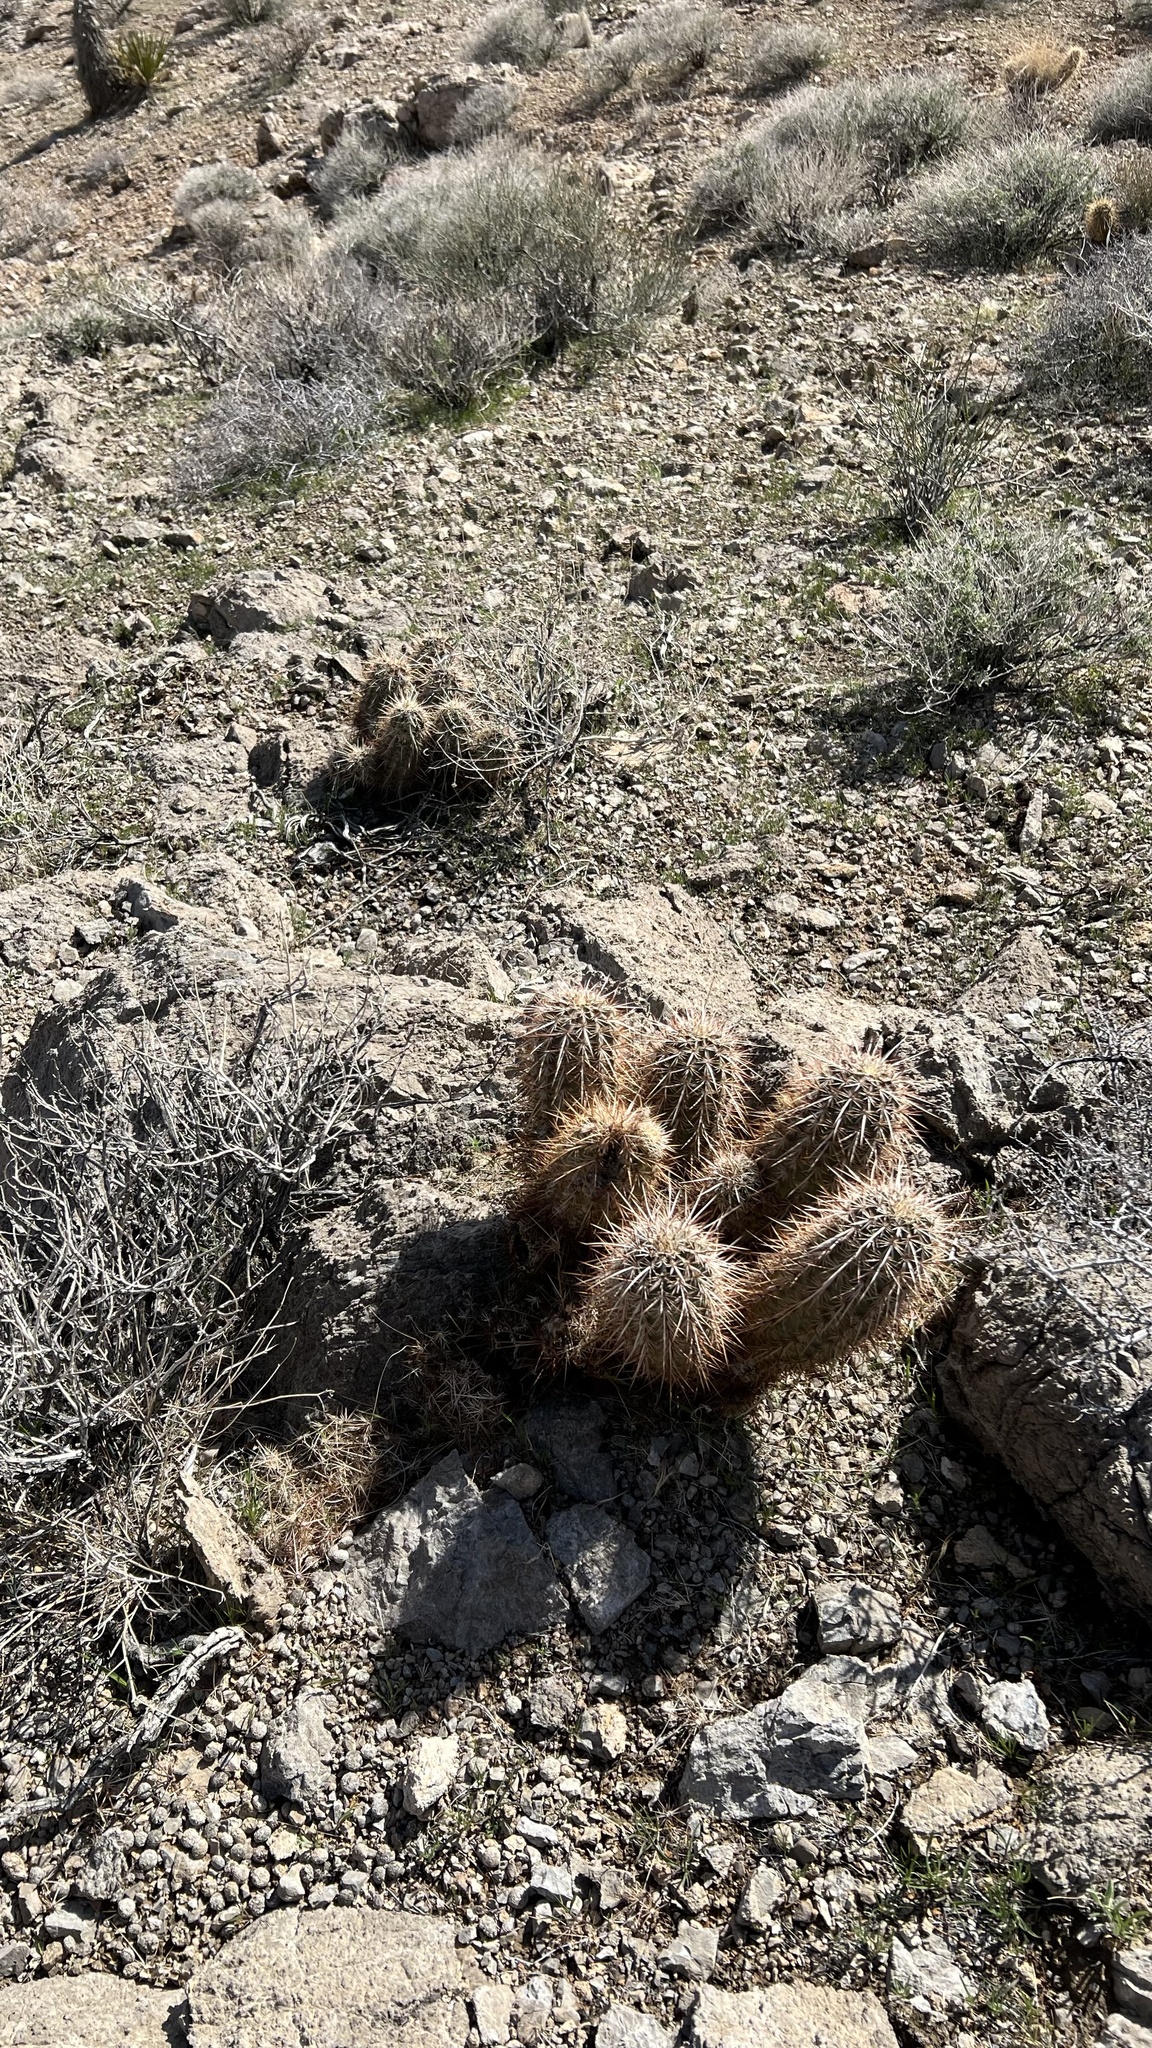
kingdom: Plantae
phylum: Tracheophyta
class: Magnoliopsida
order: Caryophyllales
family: Cactaceae
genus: Echinocereus
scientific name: Echinocereus engelmannii
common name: Engelmann's hedgehog cactus
